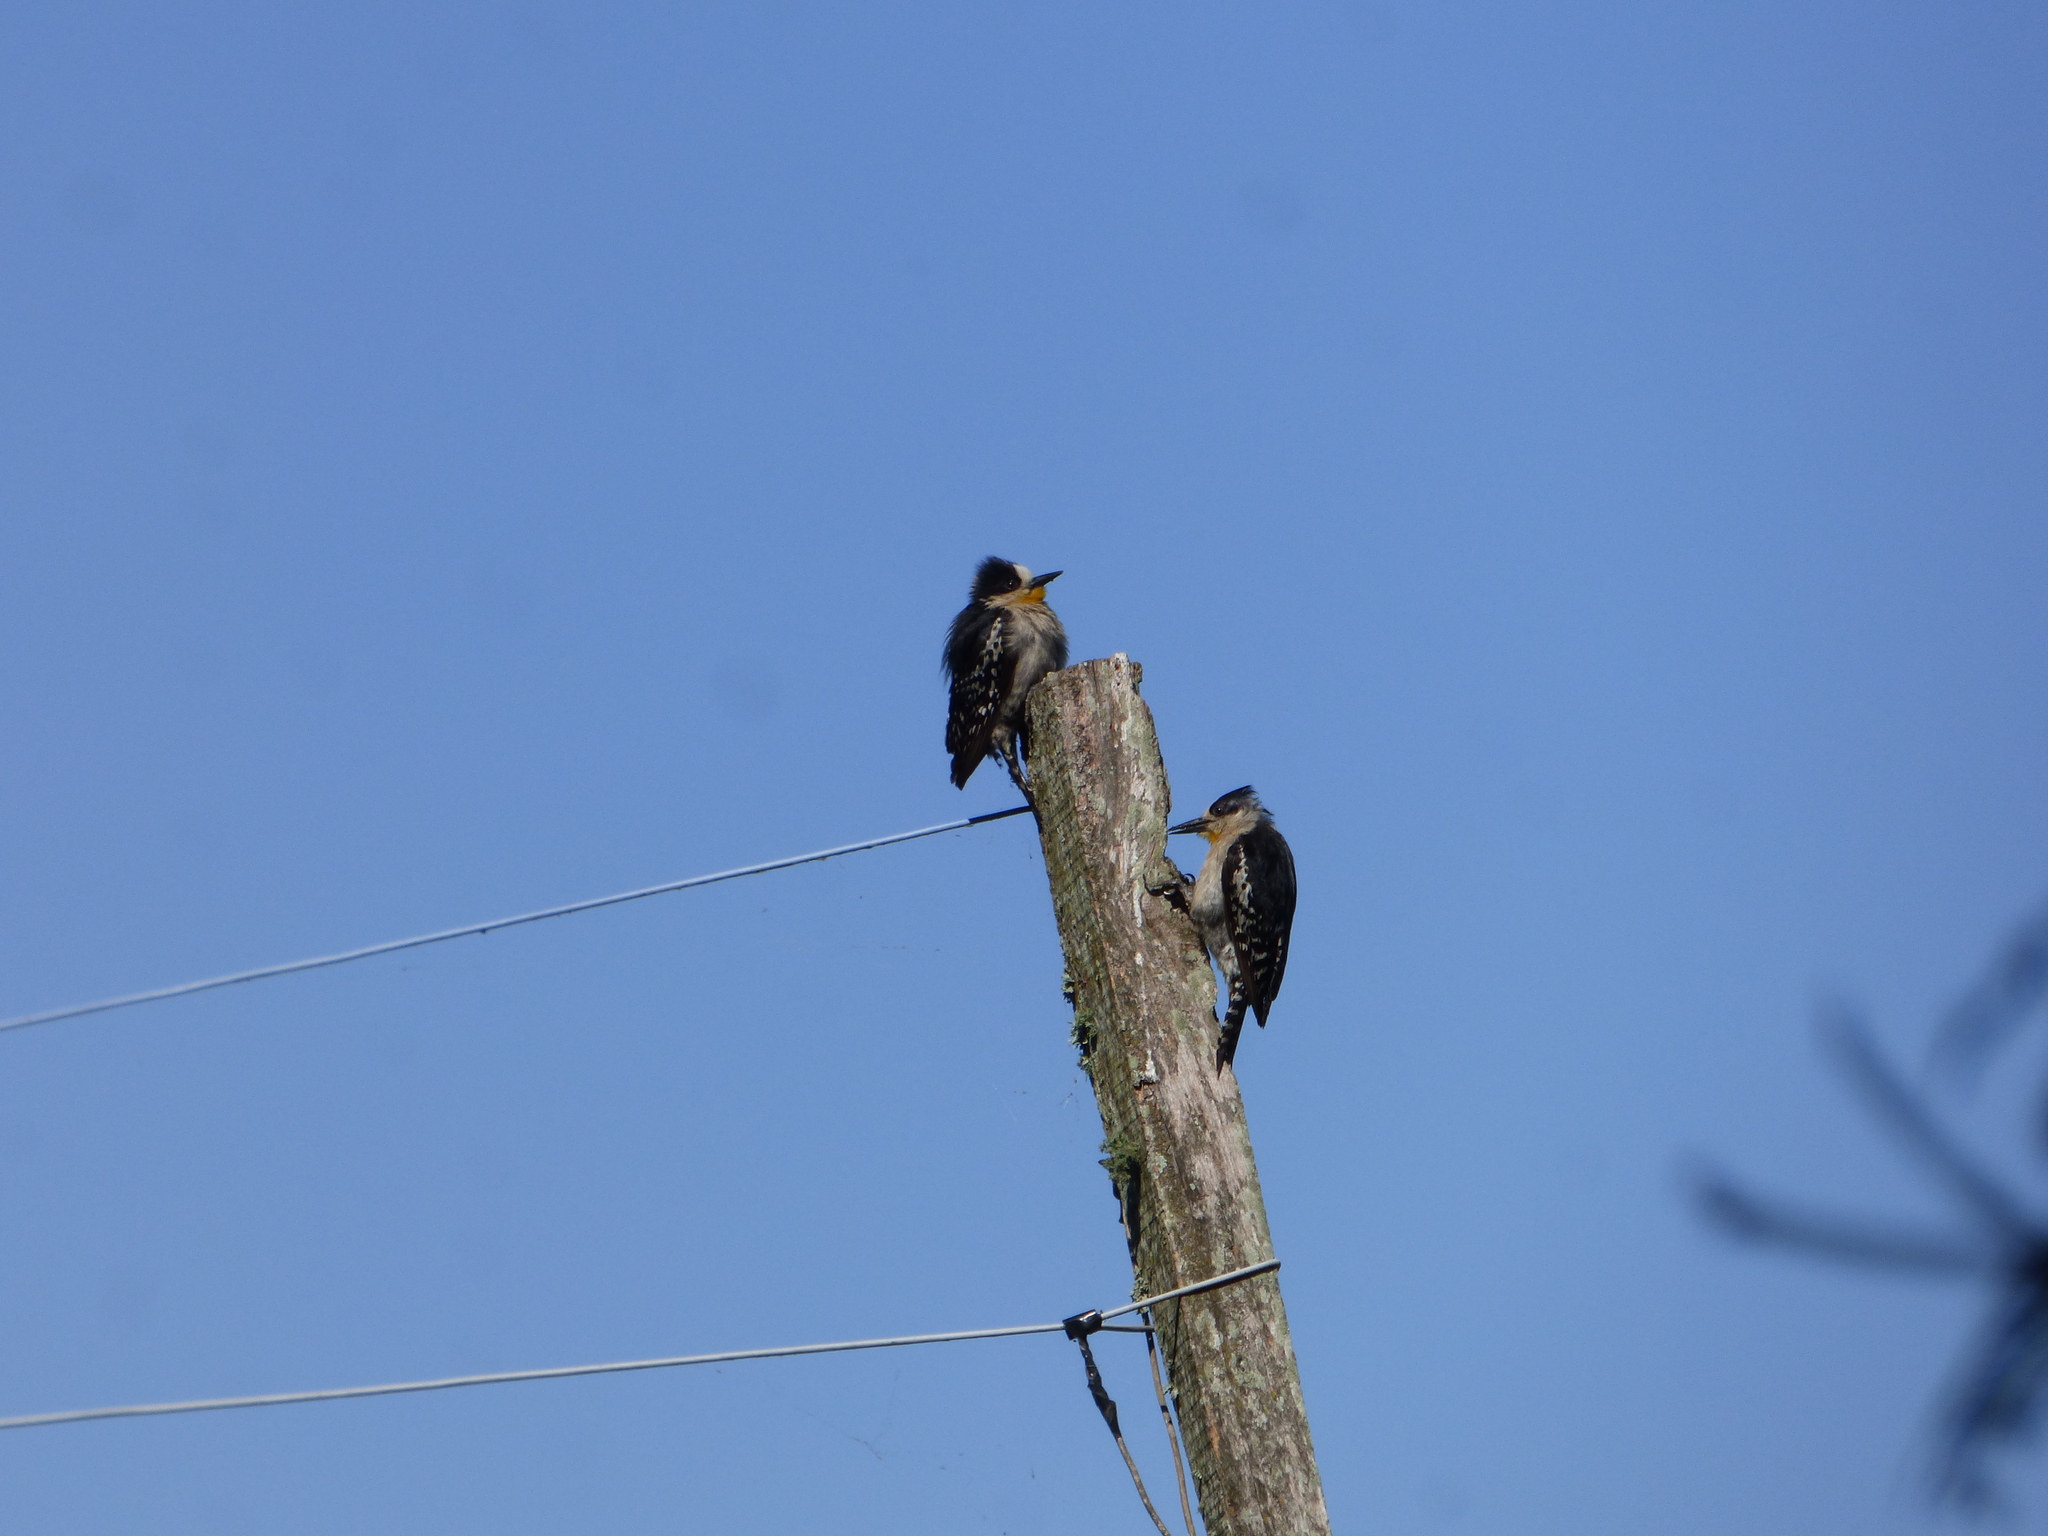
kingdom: Animalia
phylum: Chordata
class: Aves
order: Piciformes
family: Picidae
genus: Melanerpes
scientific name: Melanerpes cactorum
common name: White-fronted woodpecker
